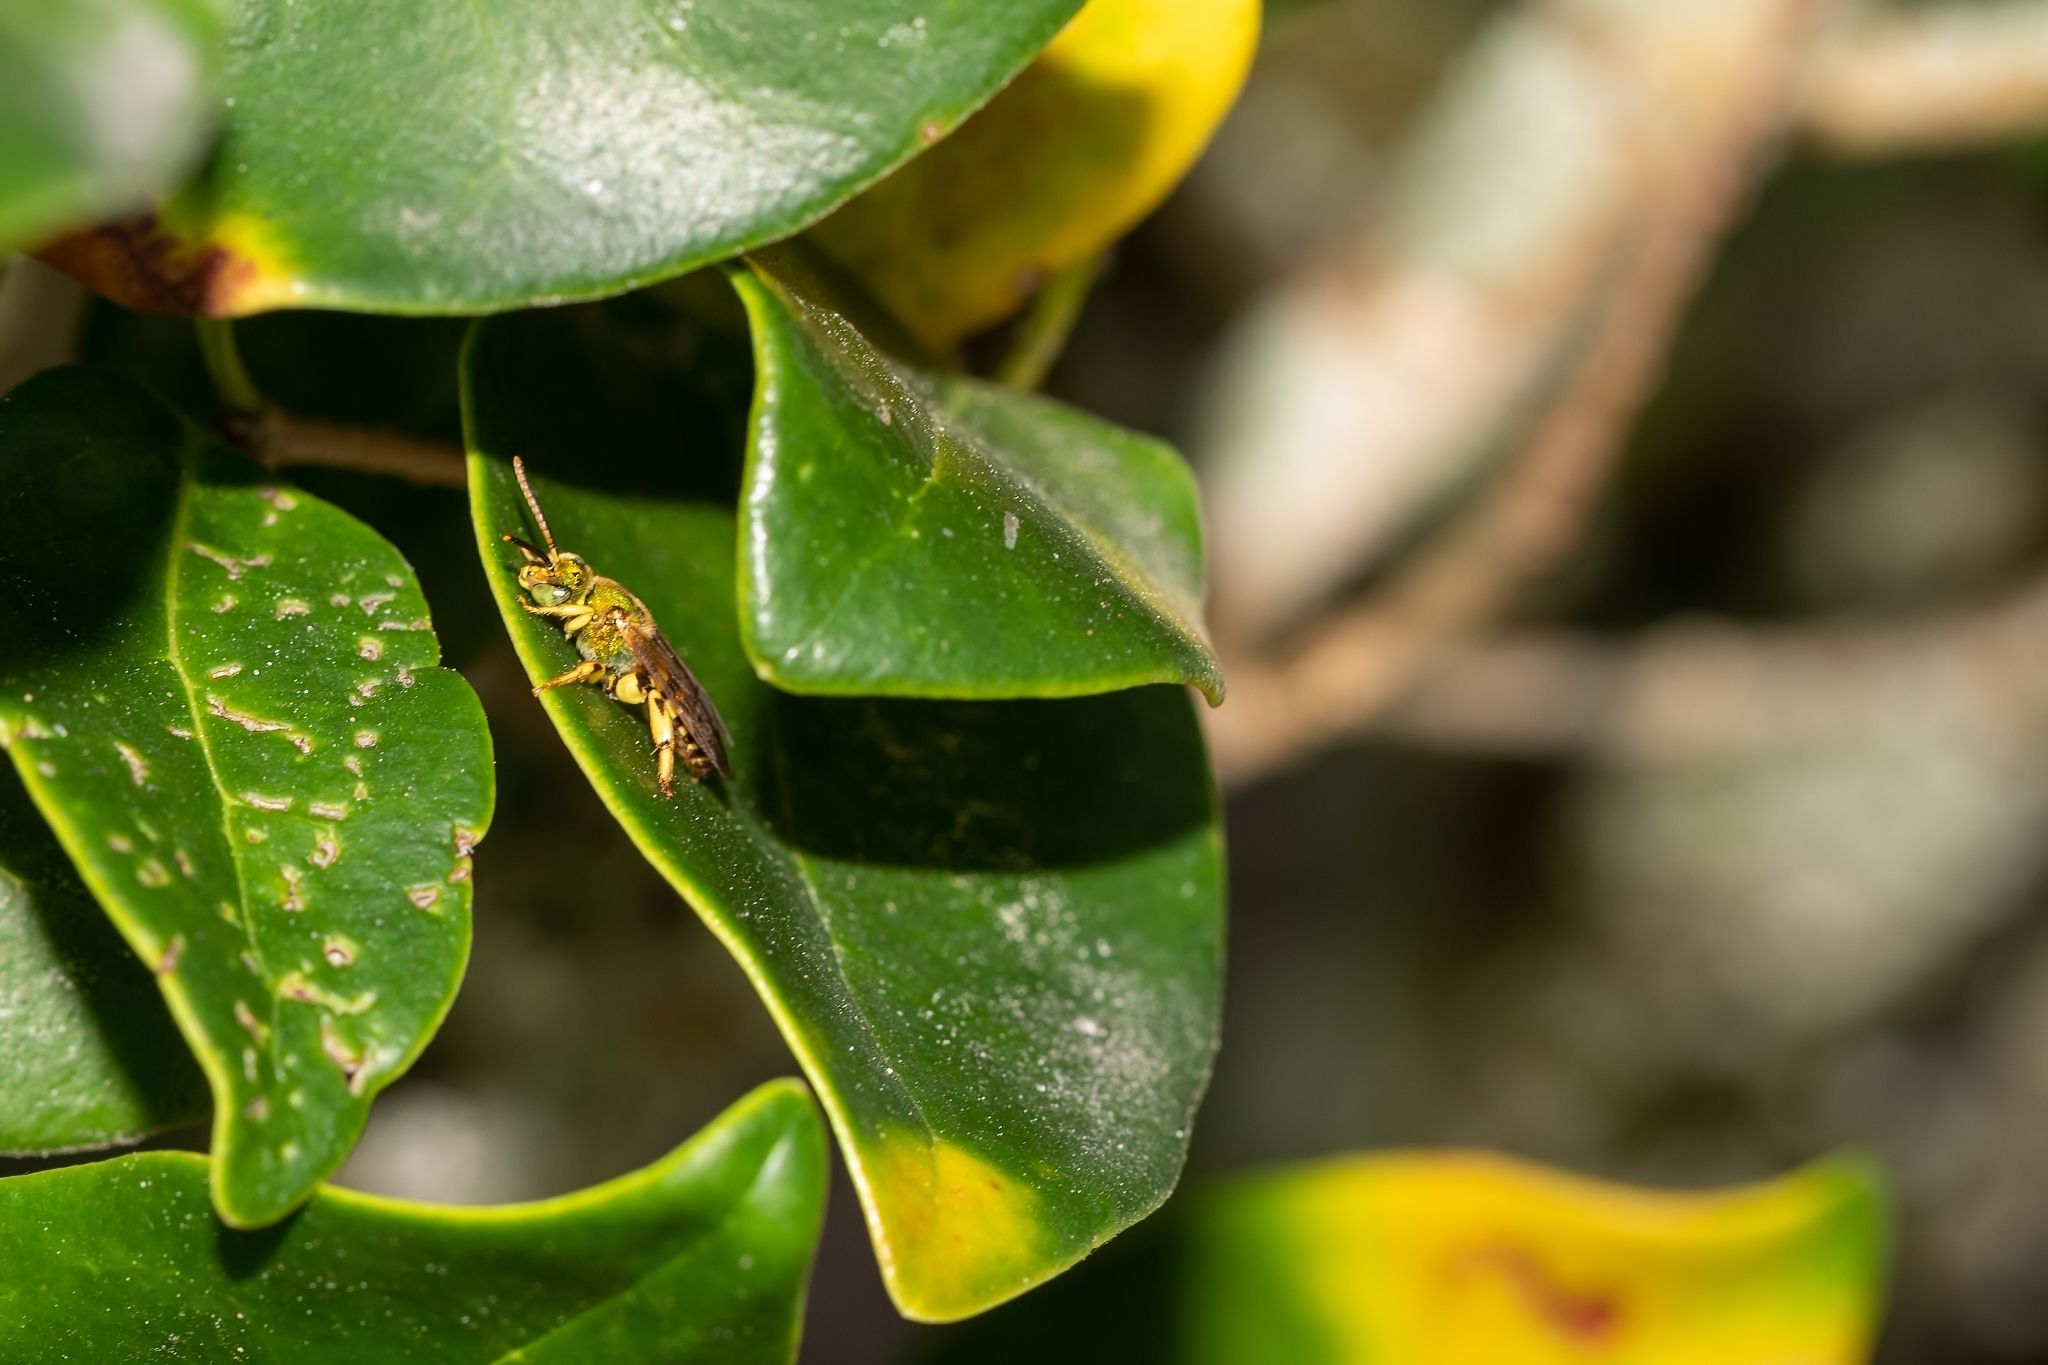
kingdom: Animalia
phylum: Arthropoda
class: Insecta
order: Hymenoptera
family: Halictidae
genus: Agapostemon
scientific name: Agapostemon splendens
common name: Brown-winged striped sweat bee
